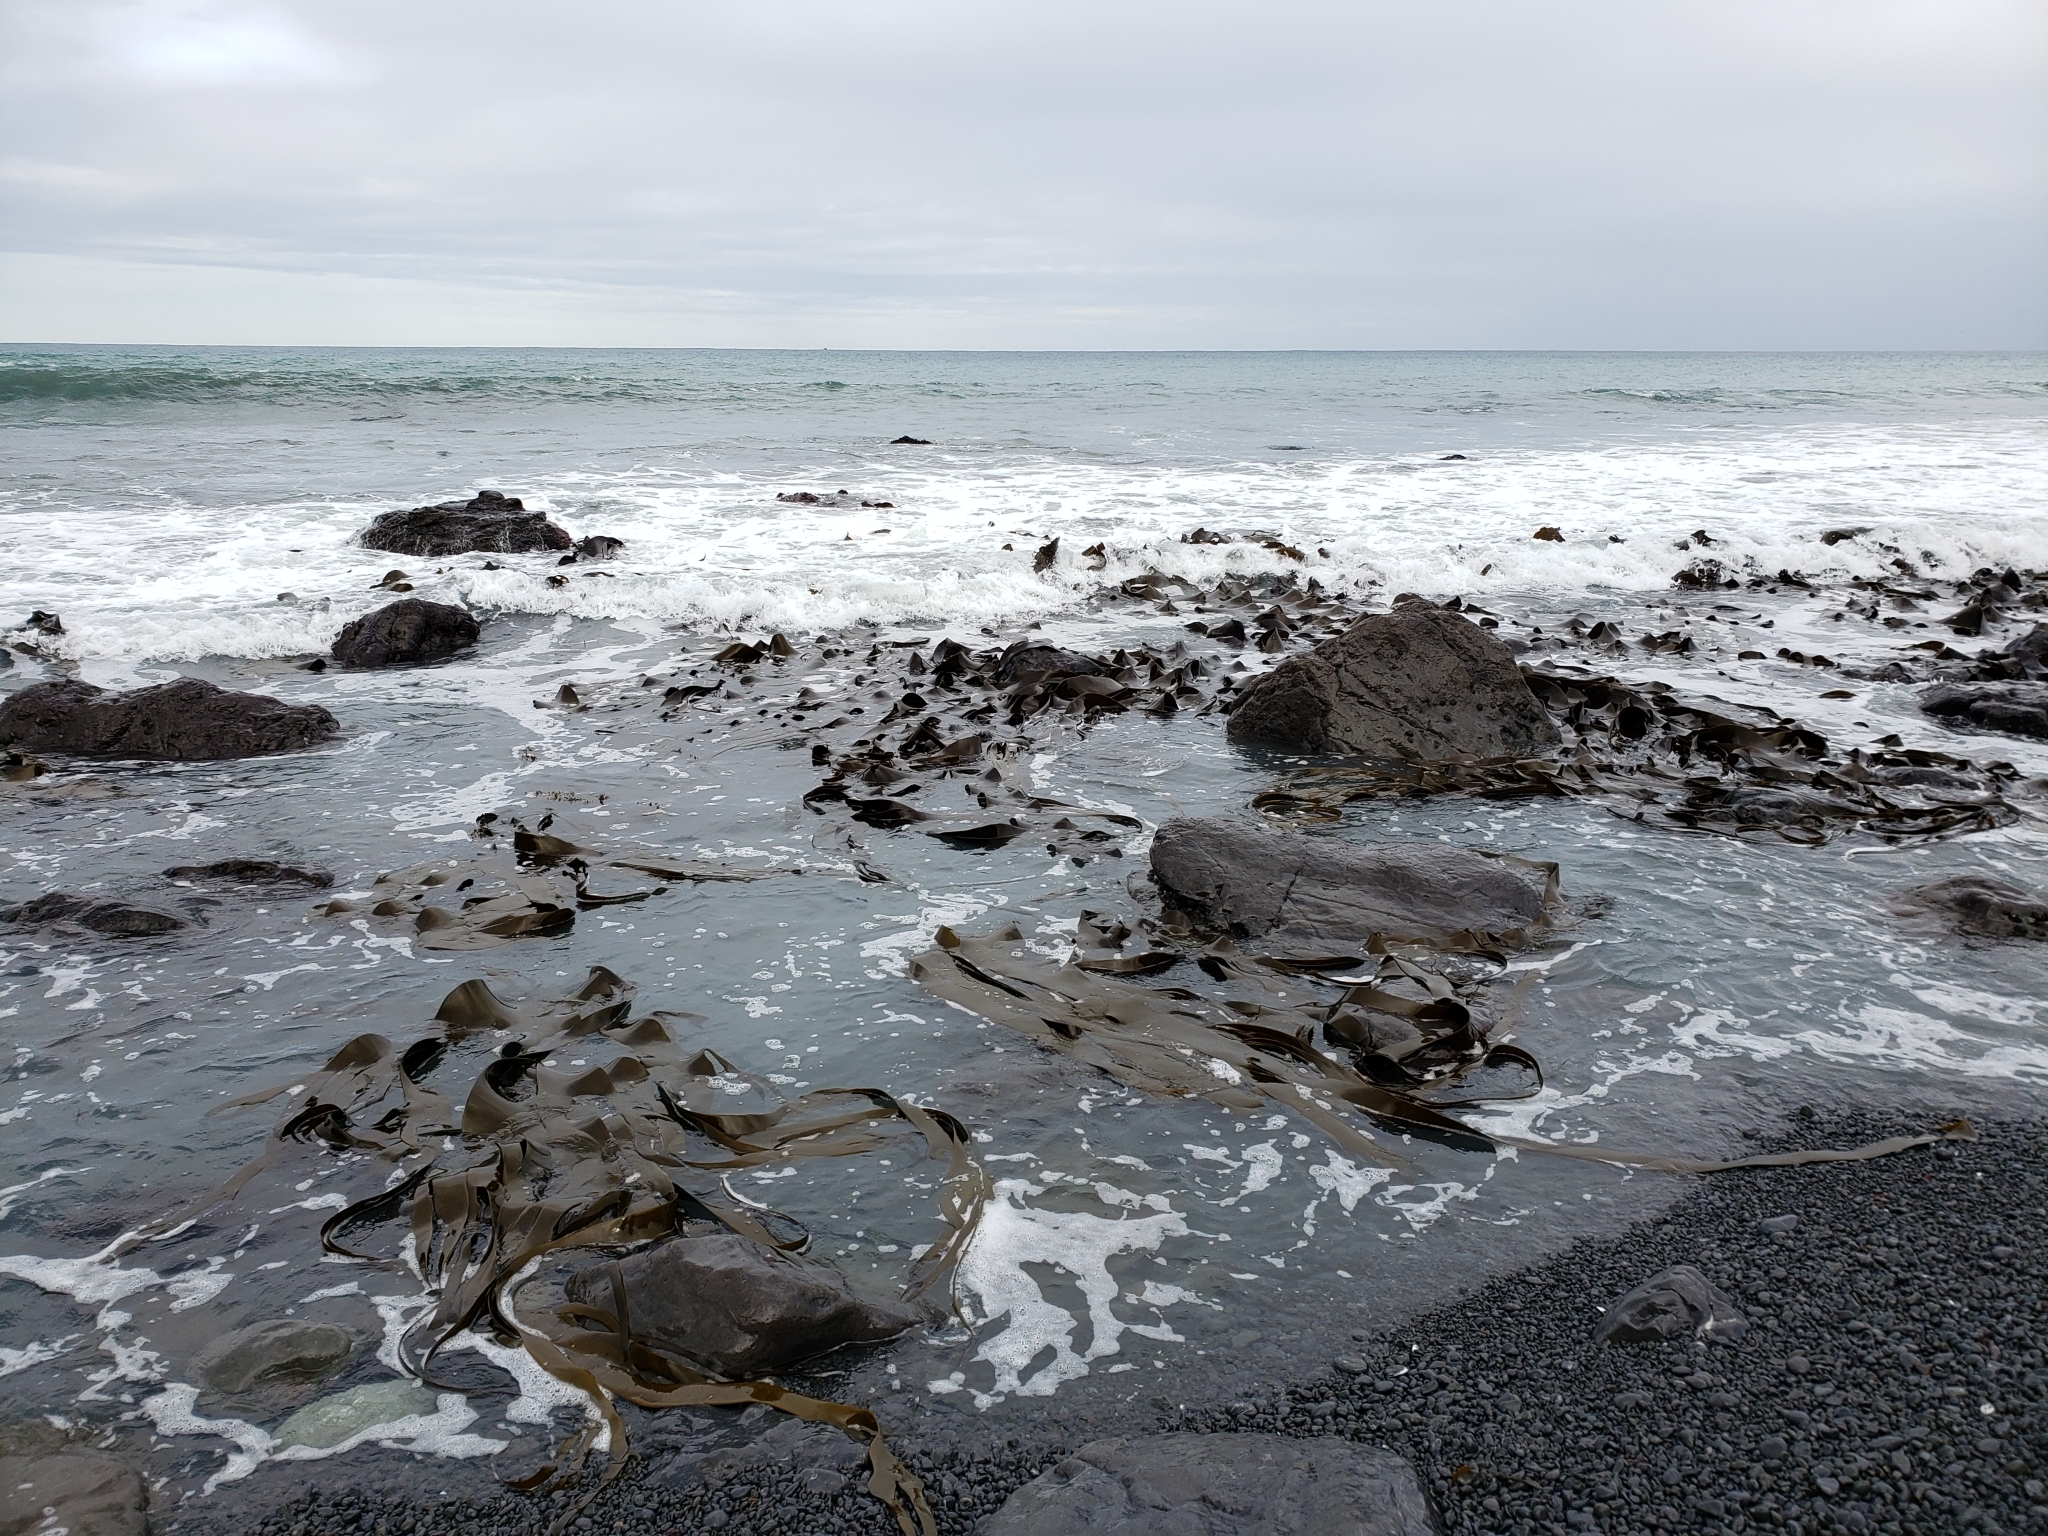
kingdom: Chromista
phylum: Ochrophyta
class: Phaeophyceae
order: Fucales
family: Durvillaeaceae
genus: Durvillaea
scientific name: Durvillaea antarctica
